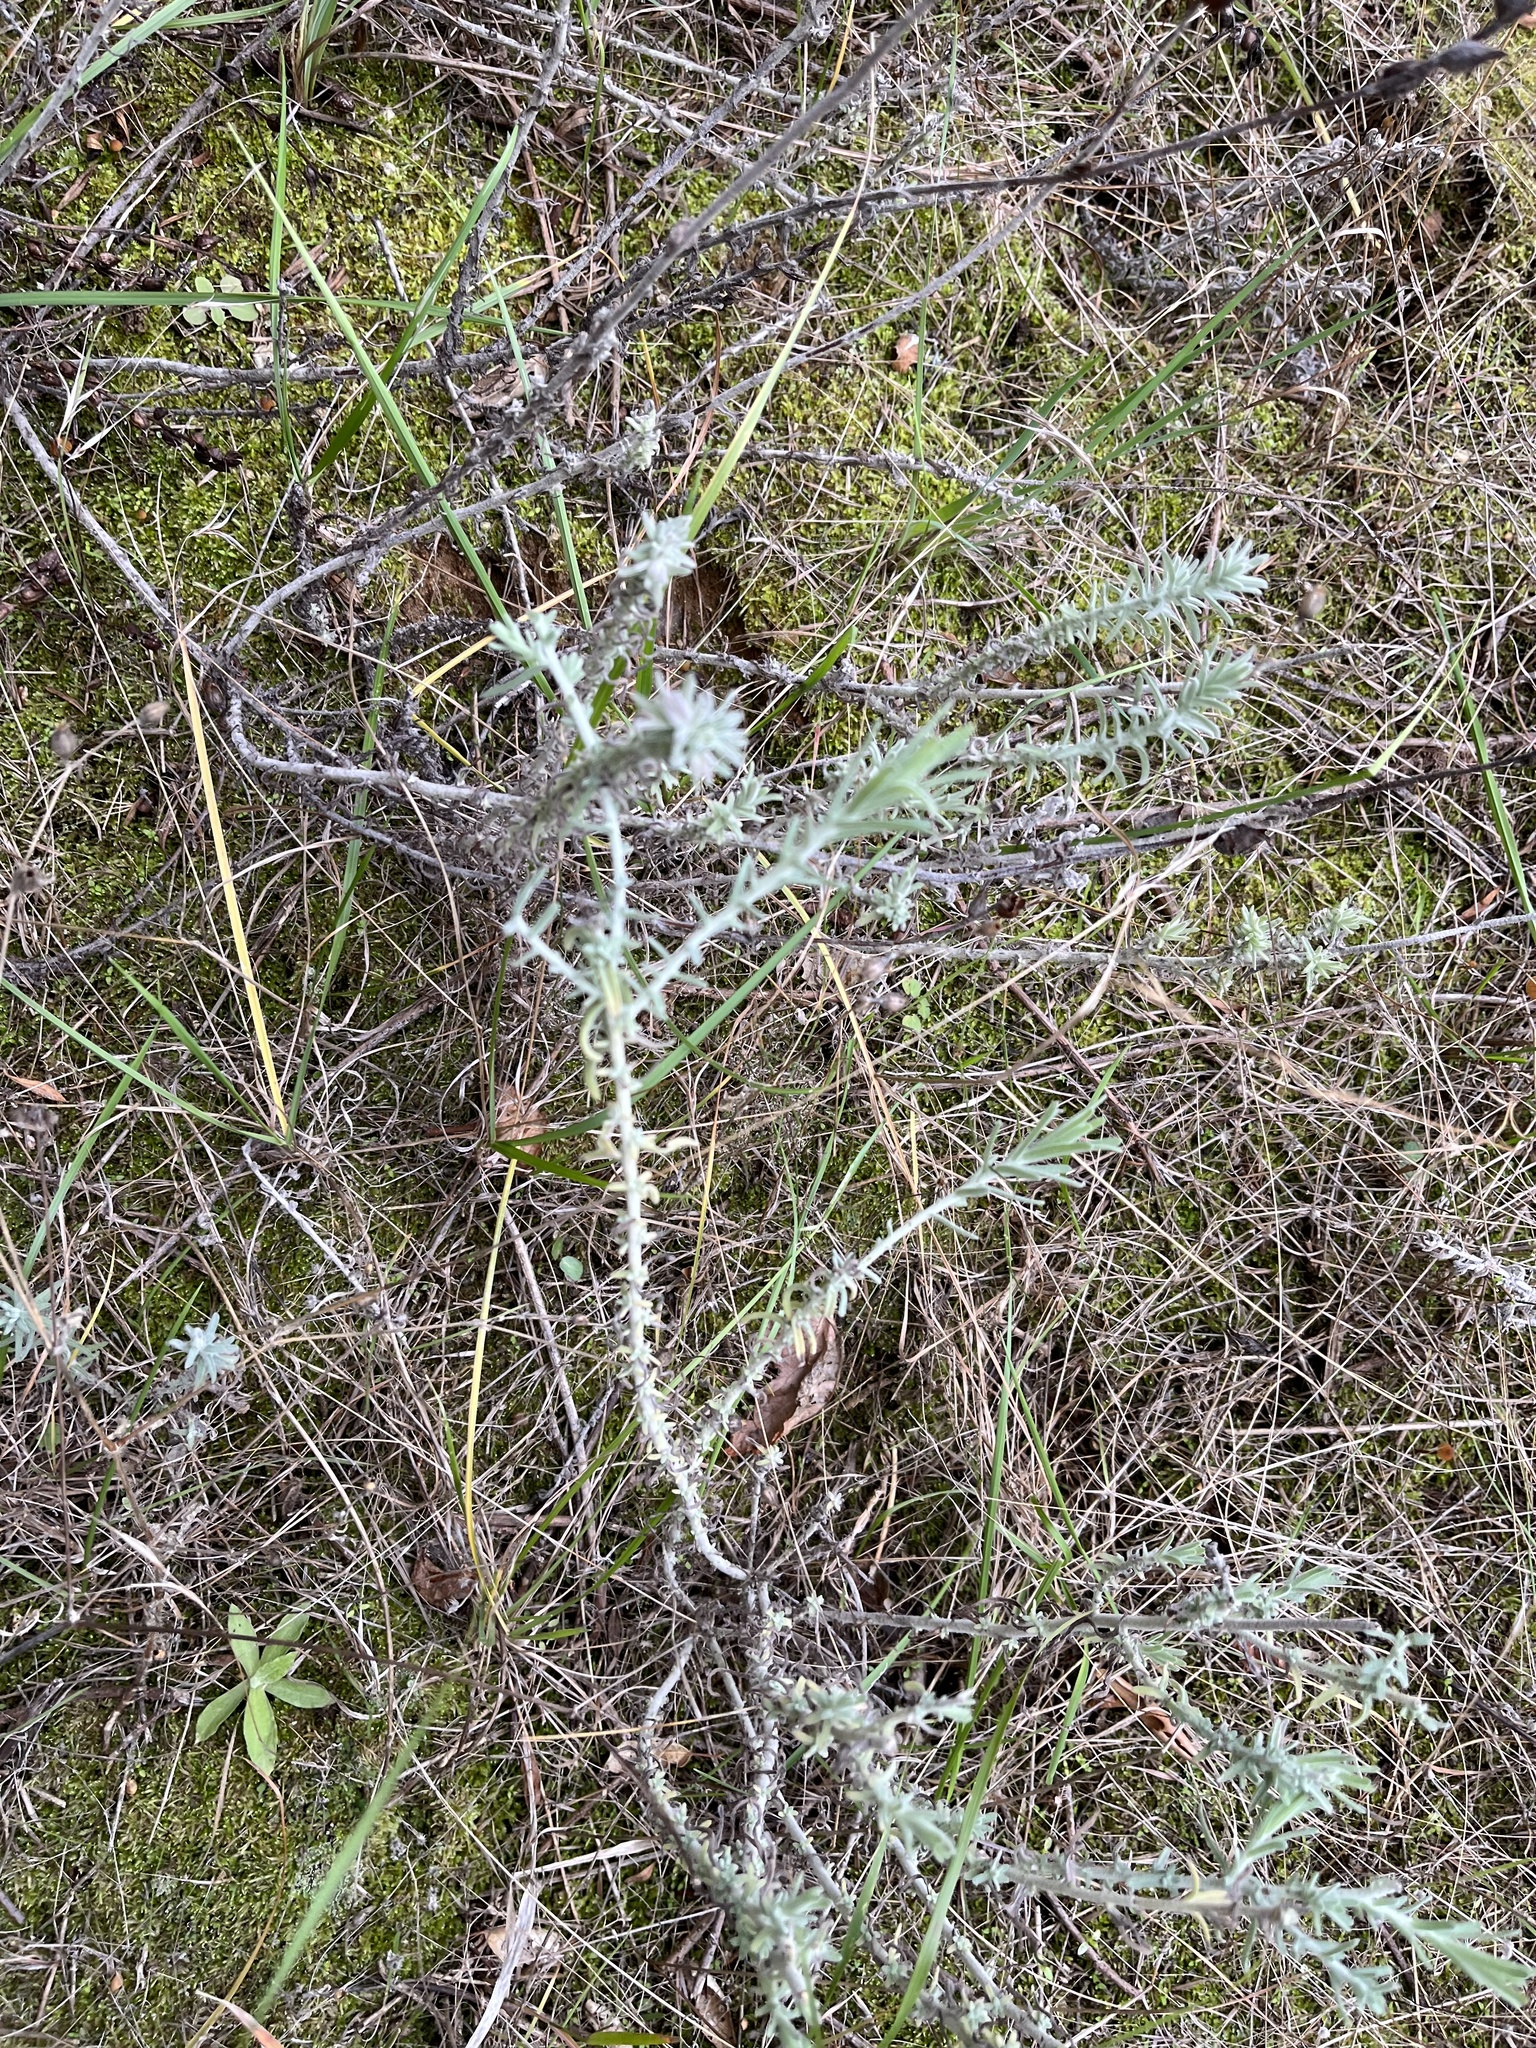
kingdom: Plantae
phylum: Tracheophyta
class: Magnoliopsida
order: Lamiales
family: Orobanchaceae
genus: Castilleja
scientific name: Castilleja foliolosa
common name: Woolly indian paintbrush
